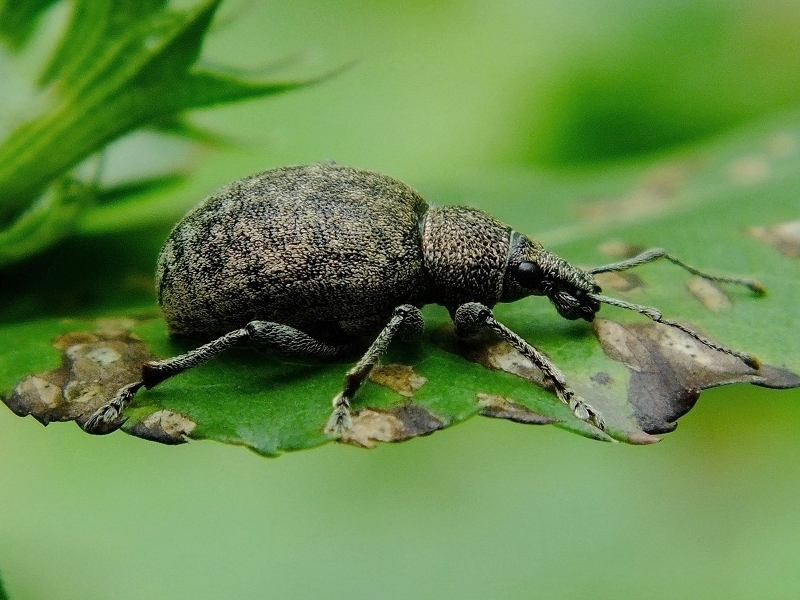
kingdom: Animalia
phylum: Arthropoda
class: Insecta
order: Coleoptera
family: Curculionidae
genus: Otiorhynchus
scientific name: Otiorhynchus ligustici
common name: Weevil
